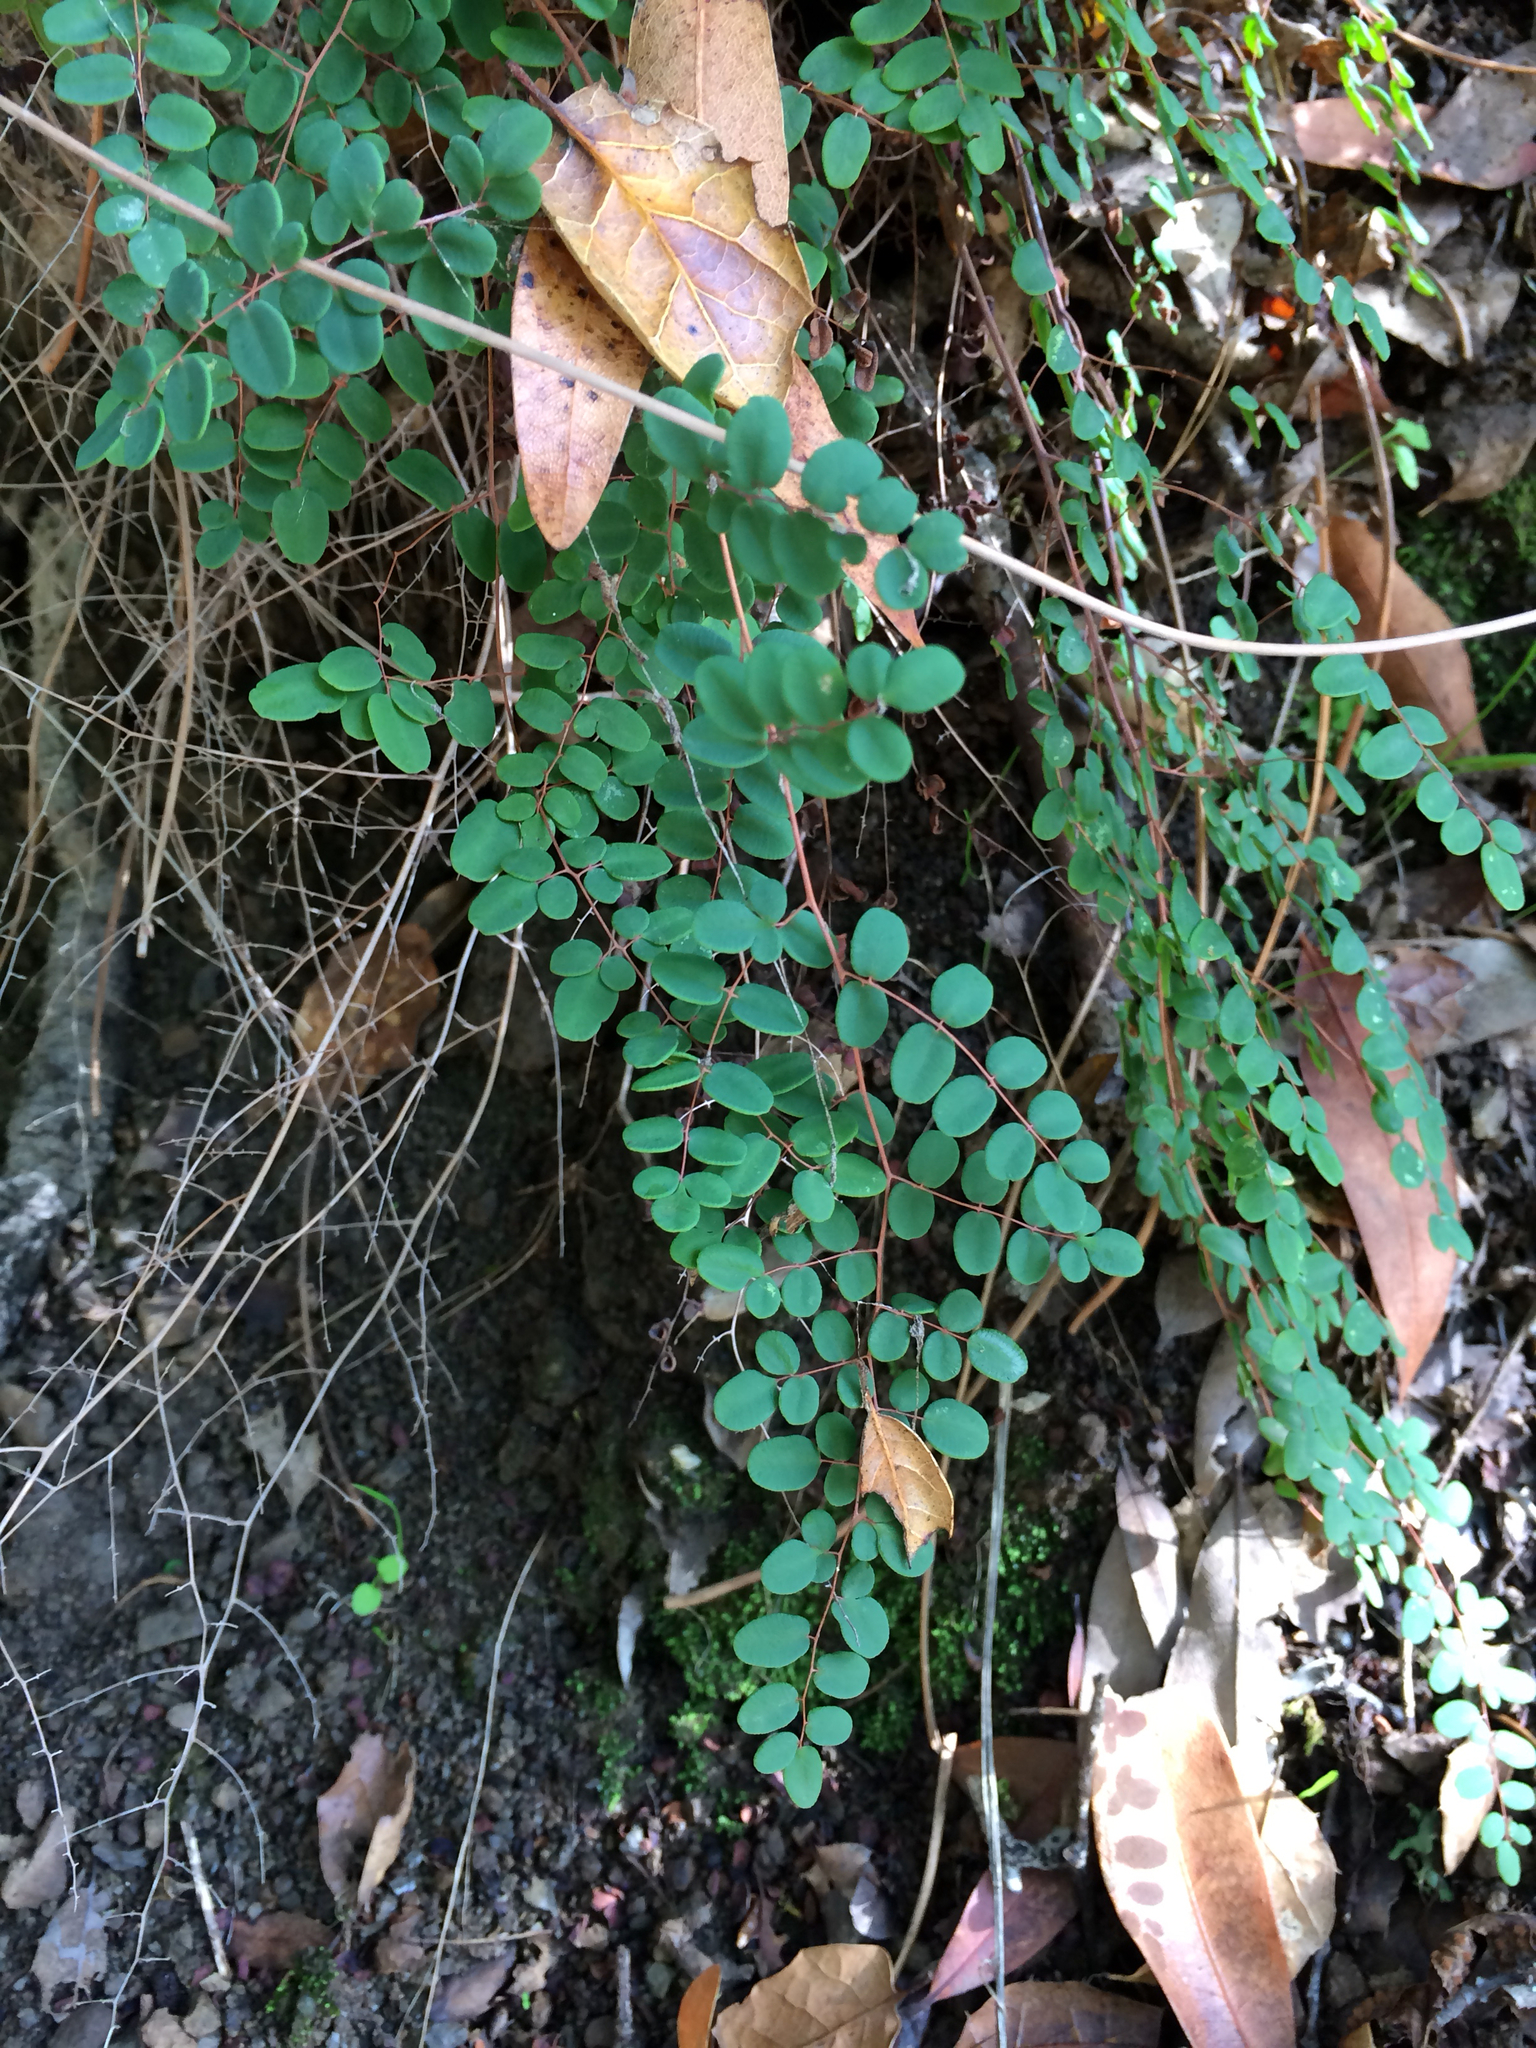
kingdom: Plantae
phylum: Tracheophyta
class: Polypodiopsida
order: Polypodiales
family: Pteridaceae
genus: Pellaea
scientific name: Pellaea andromedifolia
